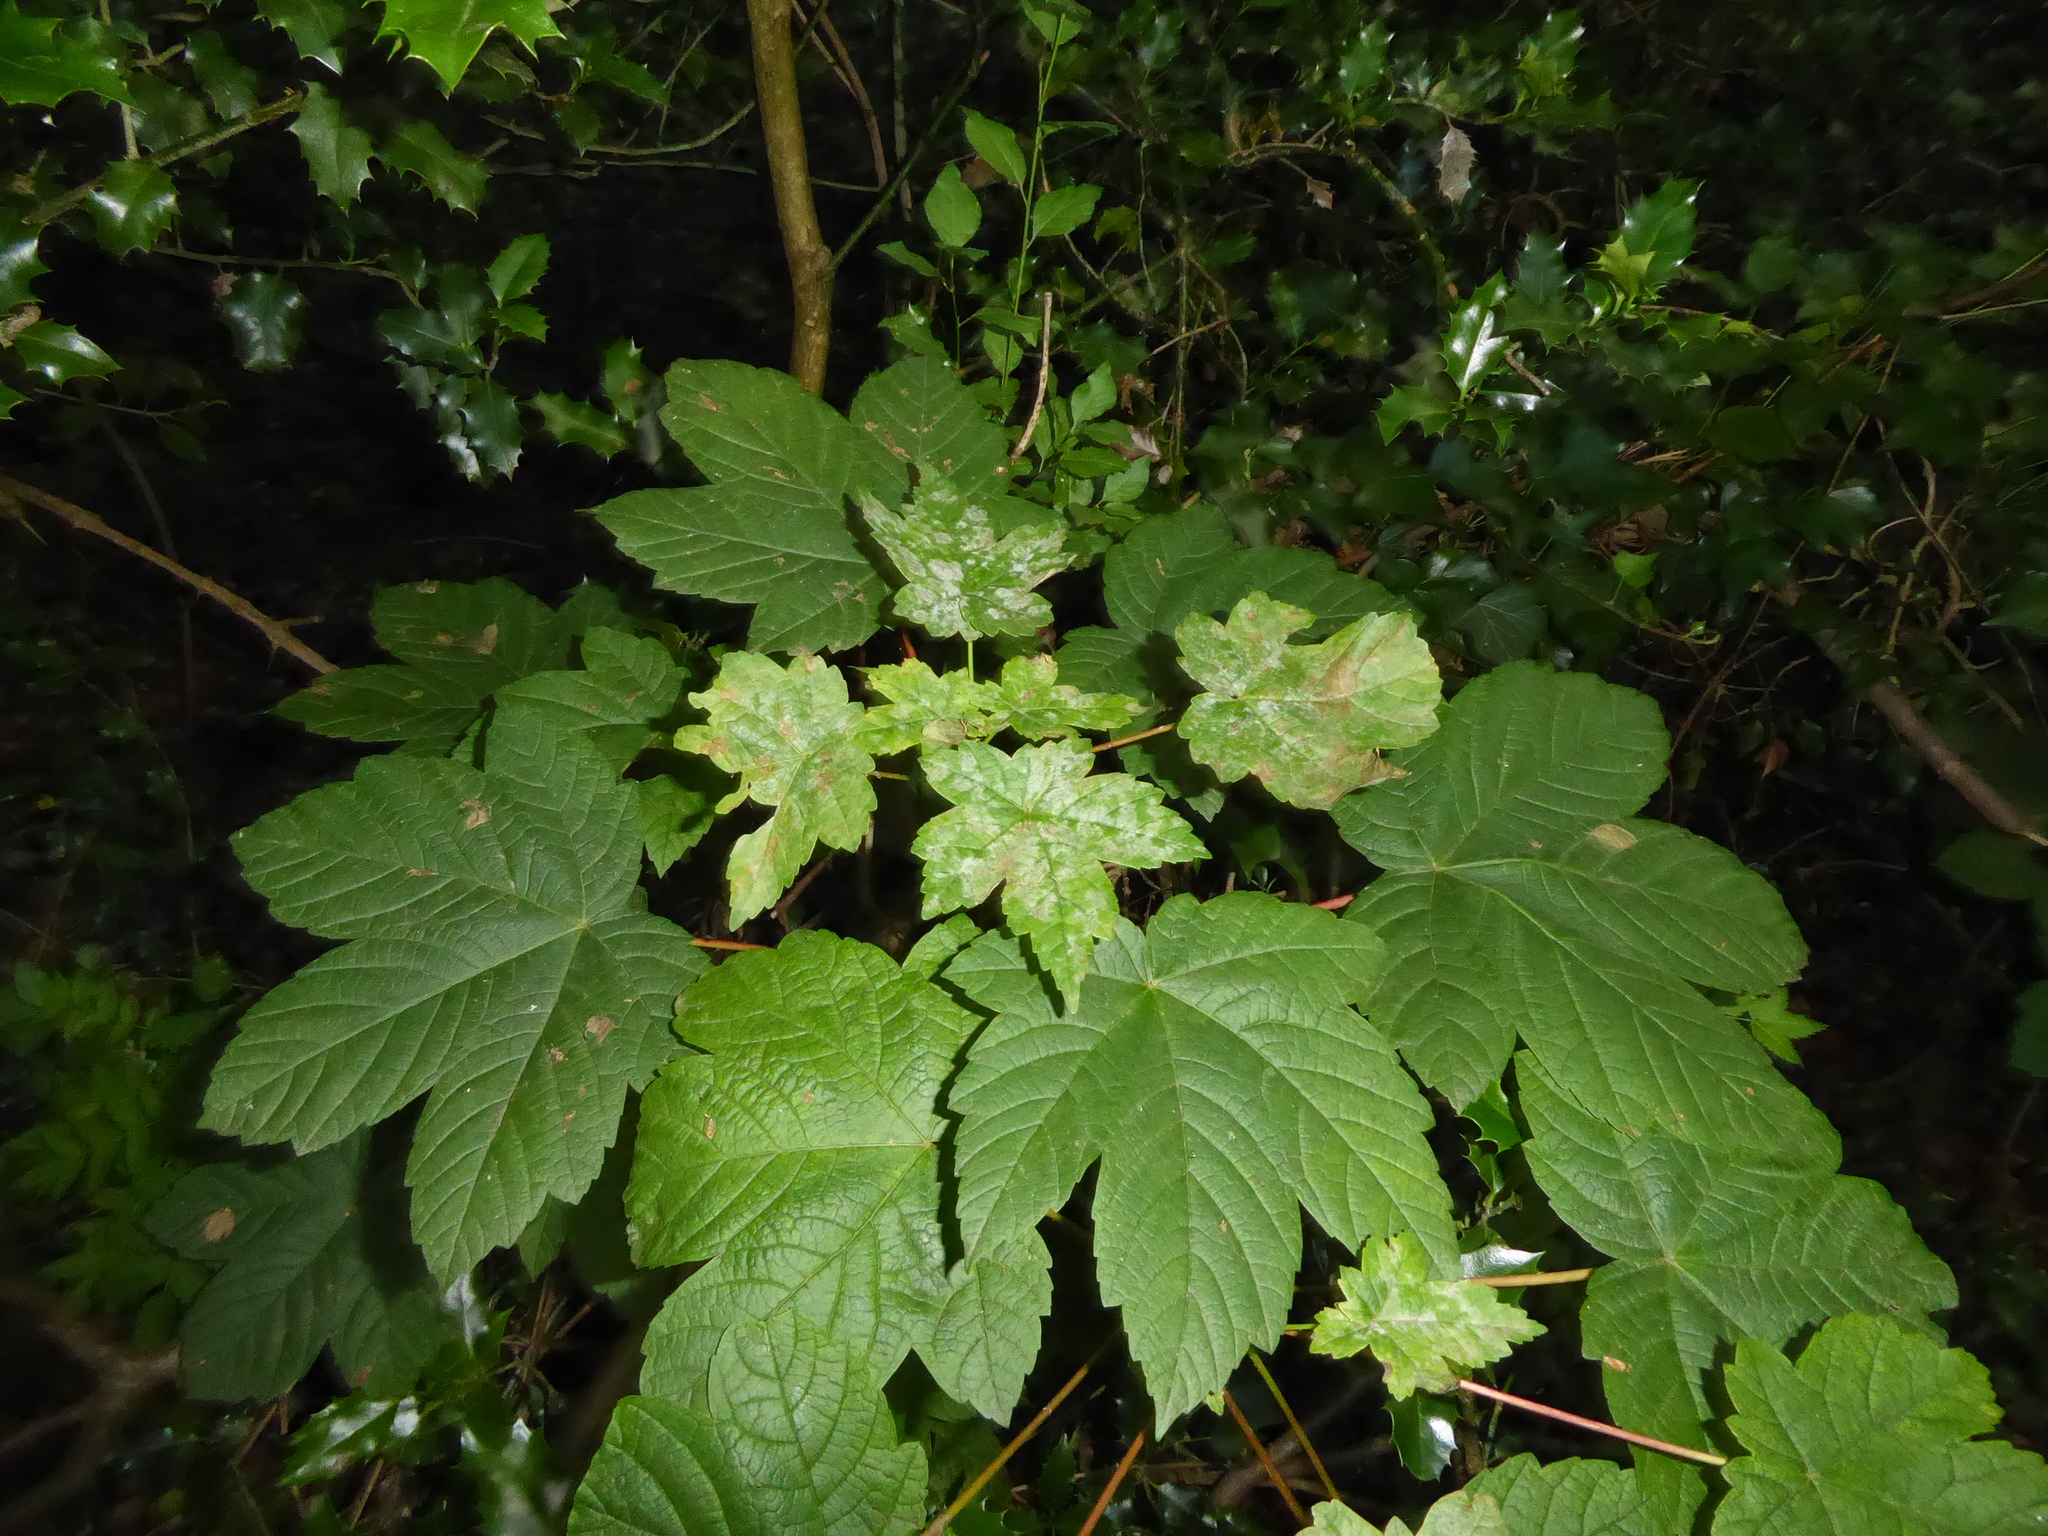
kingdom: Plantae
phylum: Tracheophyta
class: Magnoliopsida
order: Sapindales
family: Sapindaceae
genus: Acer
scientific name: Acer pseudoplatanus
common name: Sycamore
